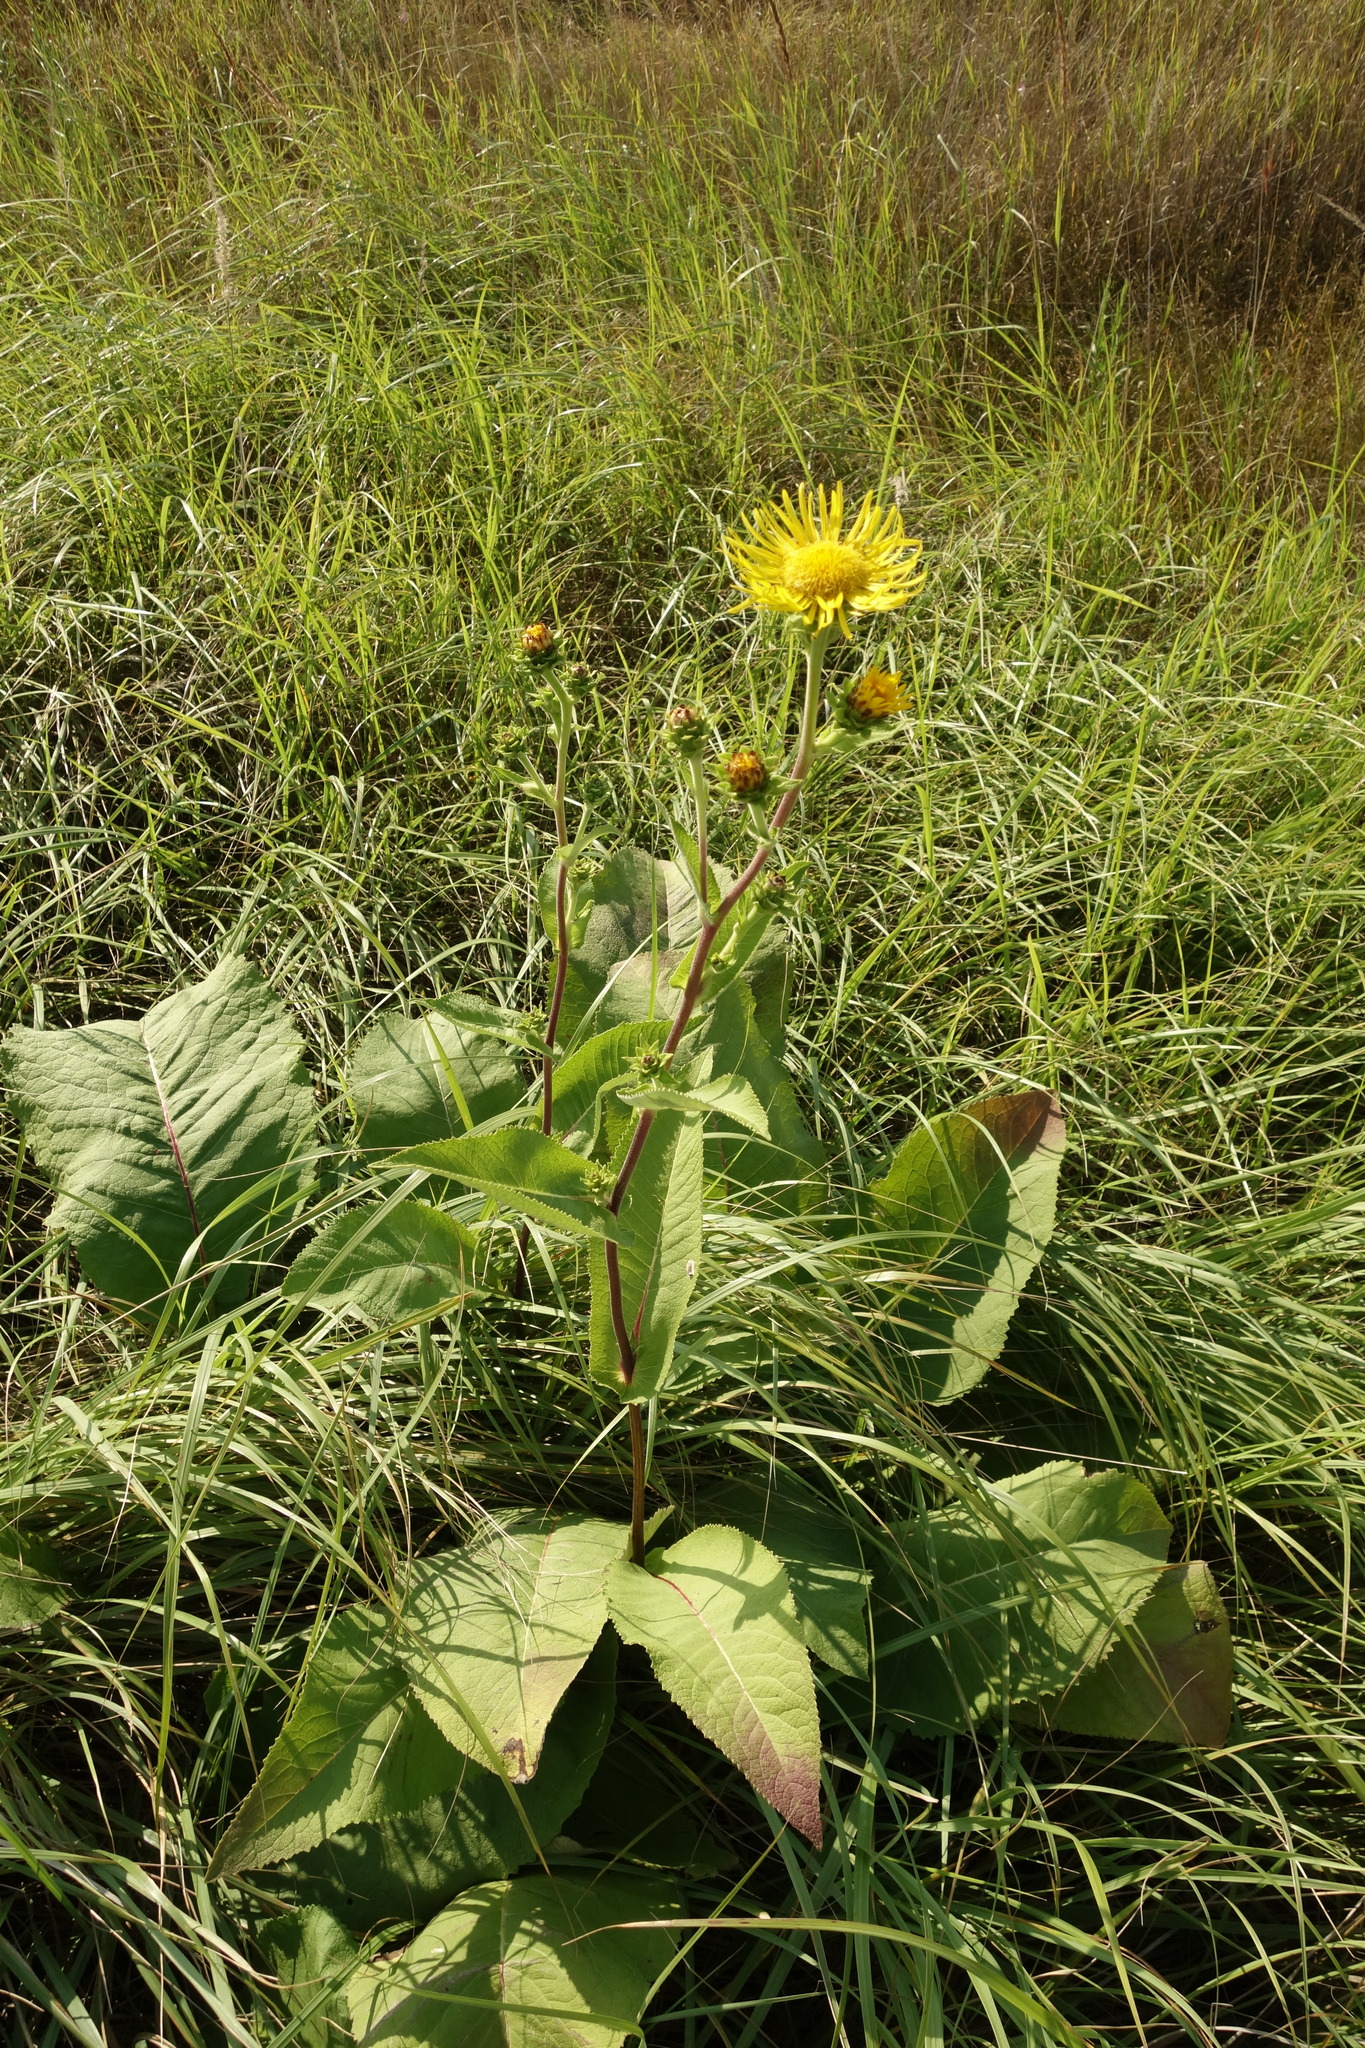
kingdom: Plantae
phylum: Tracheophyta
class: Magnoliopsida
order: Asterales
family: Asteraceae
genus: Inula
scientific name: Inula helenium
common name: Elecampane
